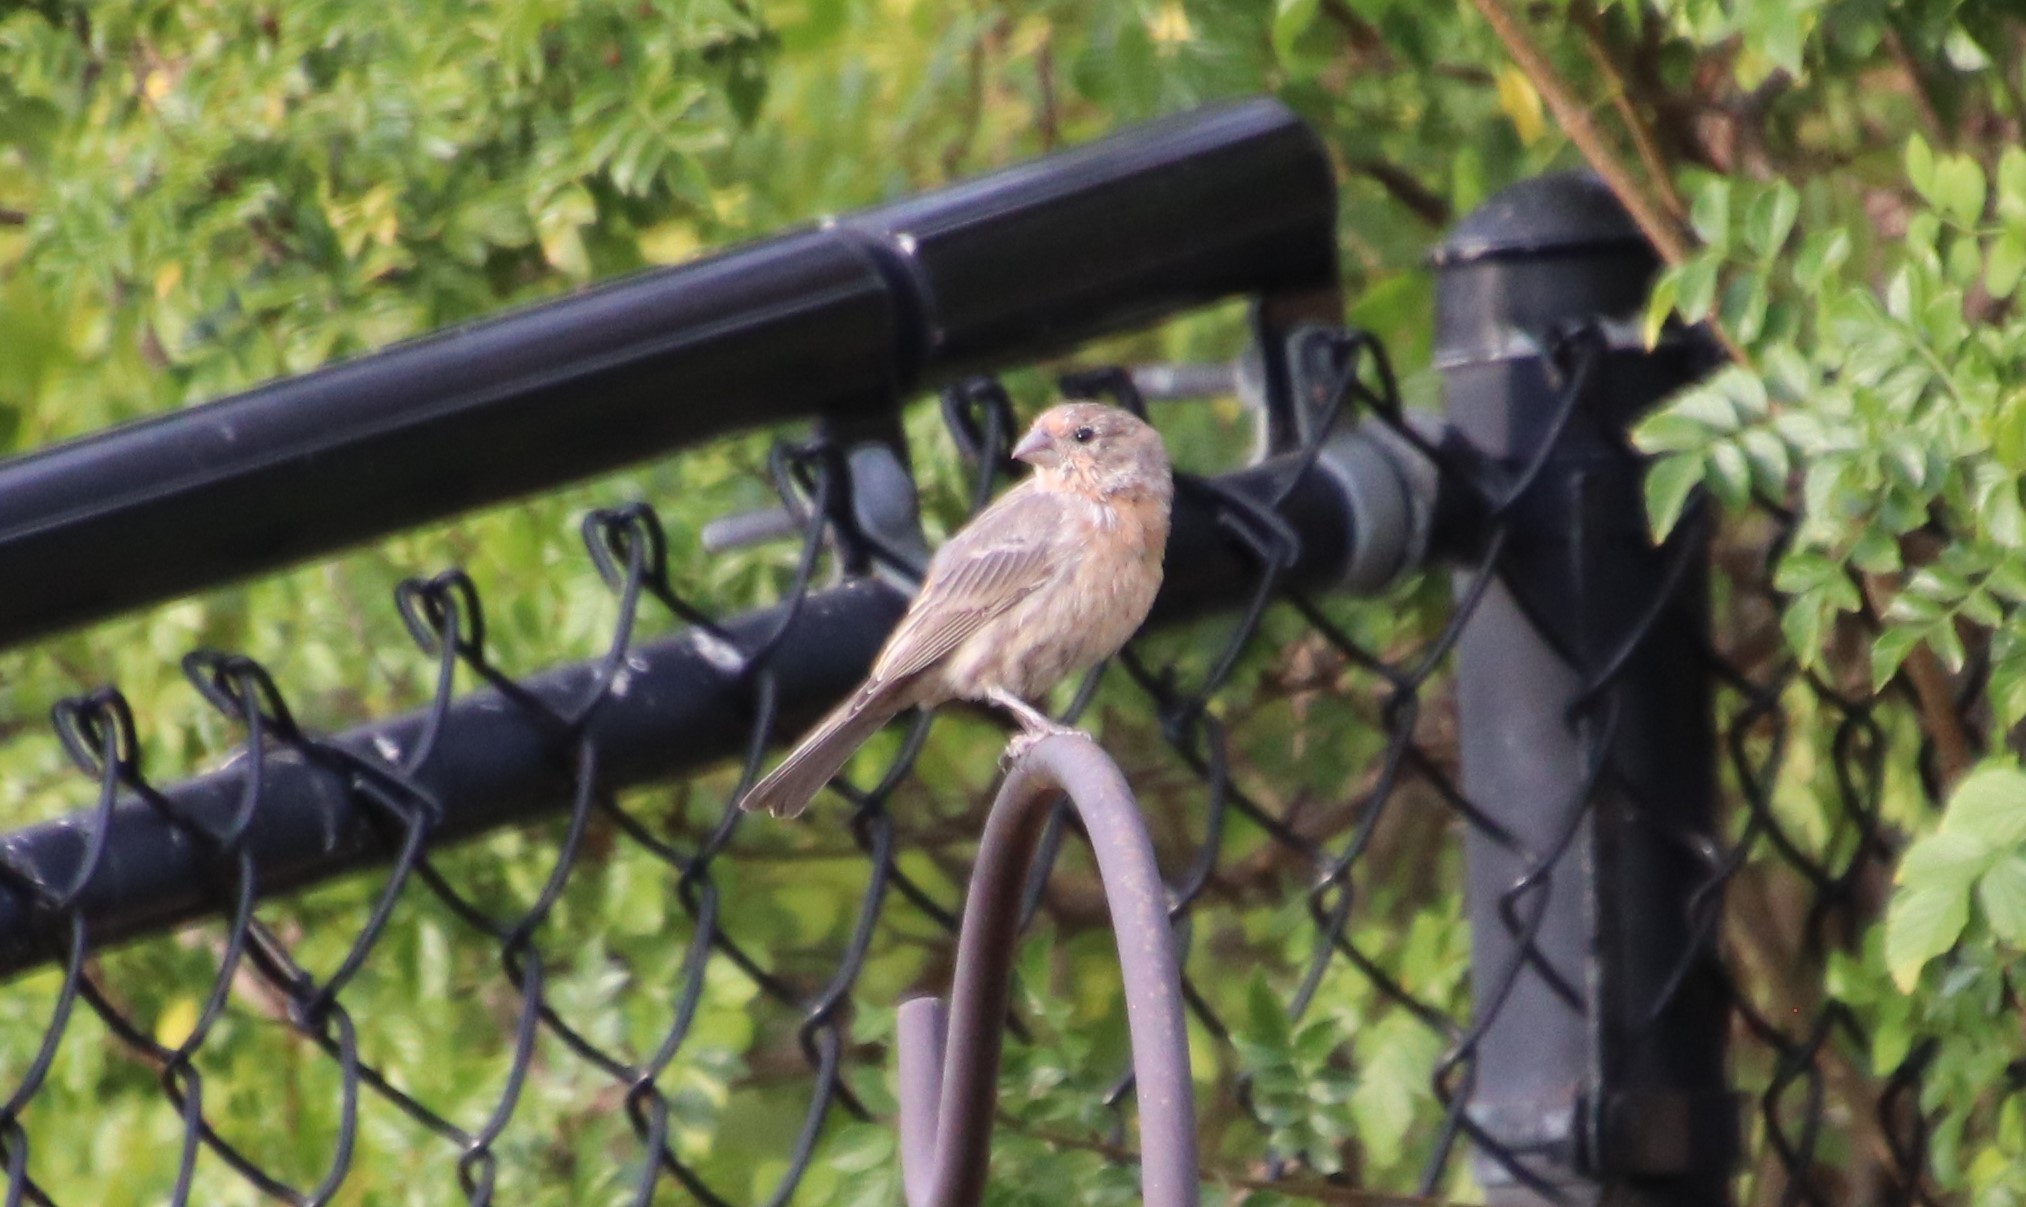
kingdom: Animalia
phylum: Chordata
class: Aves
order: Passeriformes
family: Fringillidae
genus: Haemorhous
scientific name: Haemorhous mexicanus
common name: House finch
